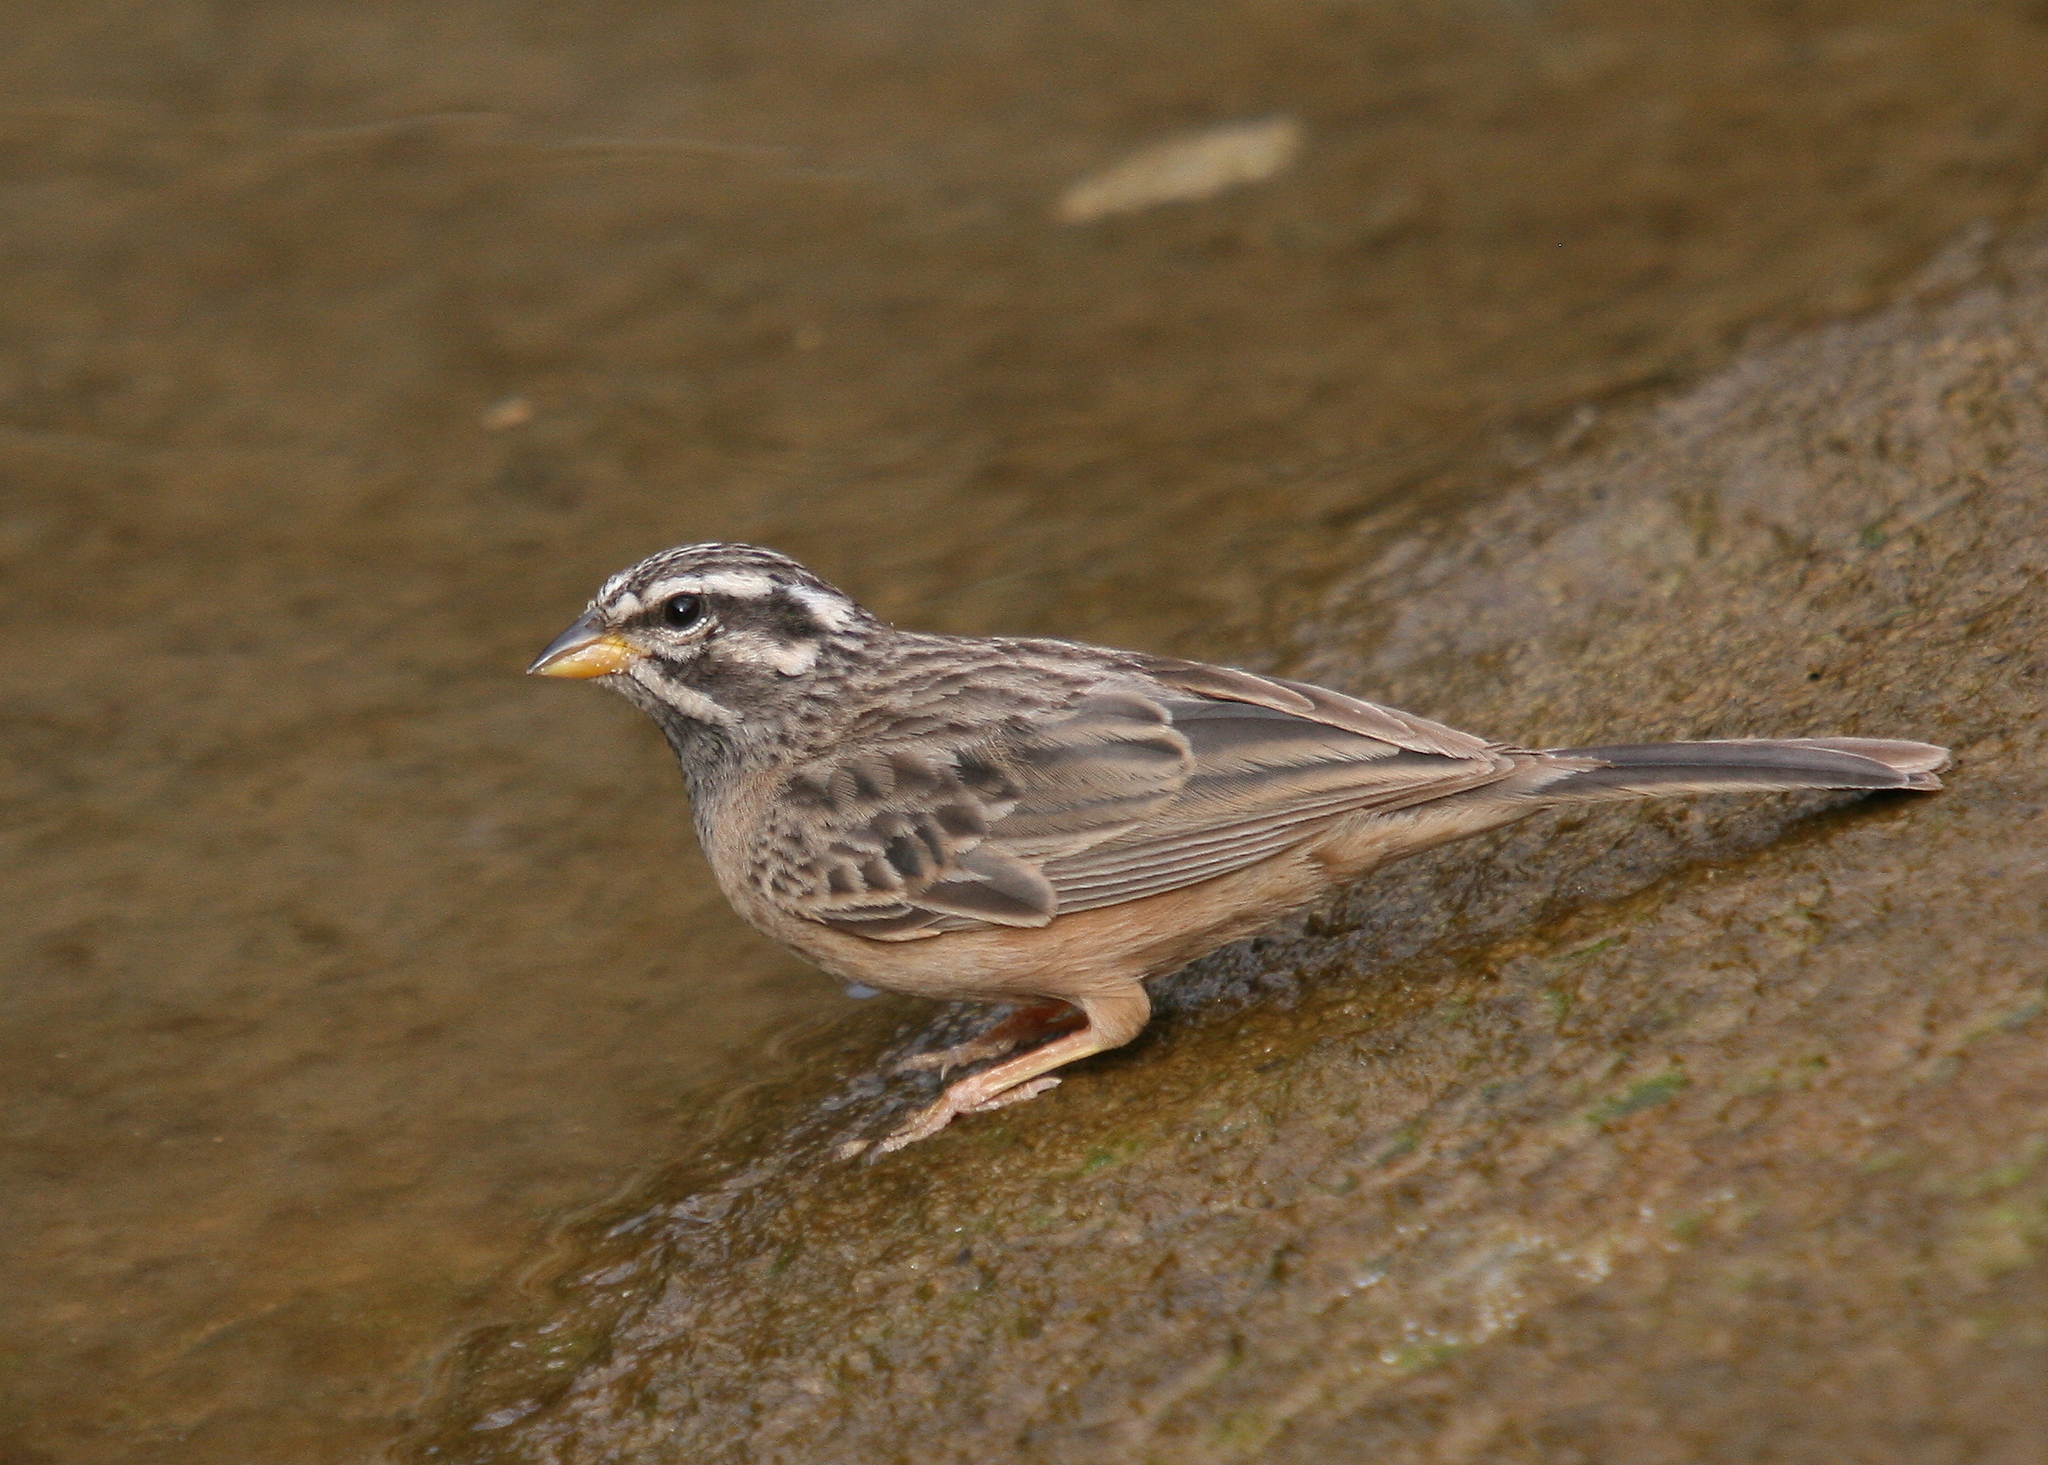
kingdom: Animalia
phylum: Chordata
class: Aves
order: Passeriformes
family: Emberizidae
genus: Emberiza
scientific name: Emberiza tahapisi
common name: Cinnamon-breasted bunting
